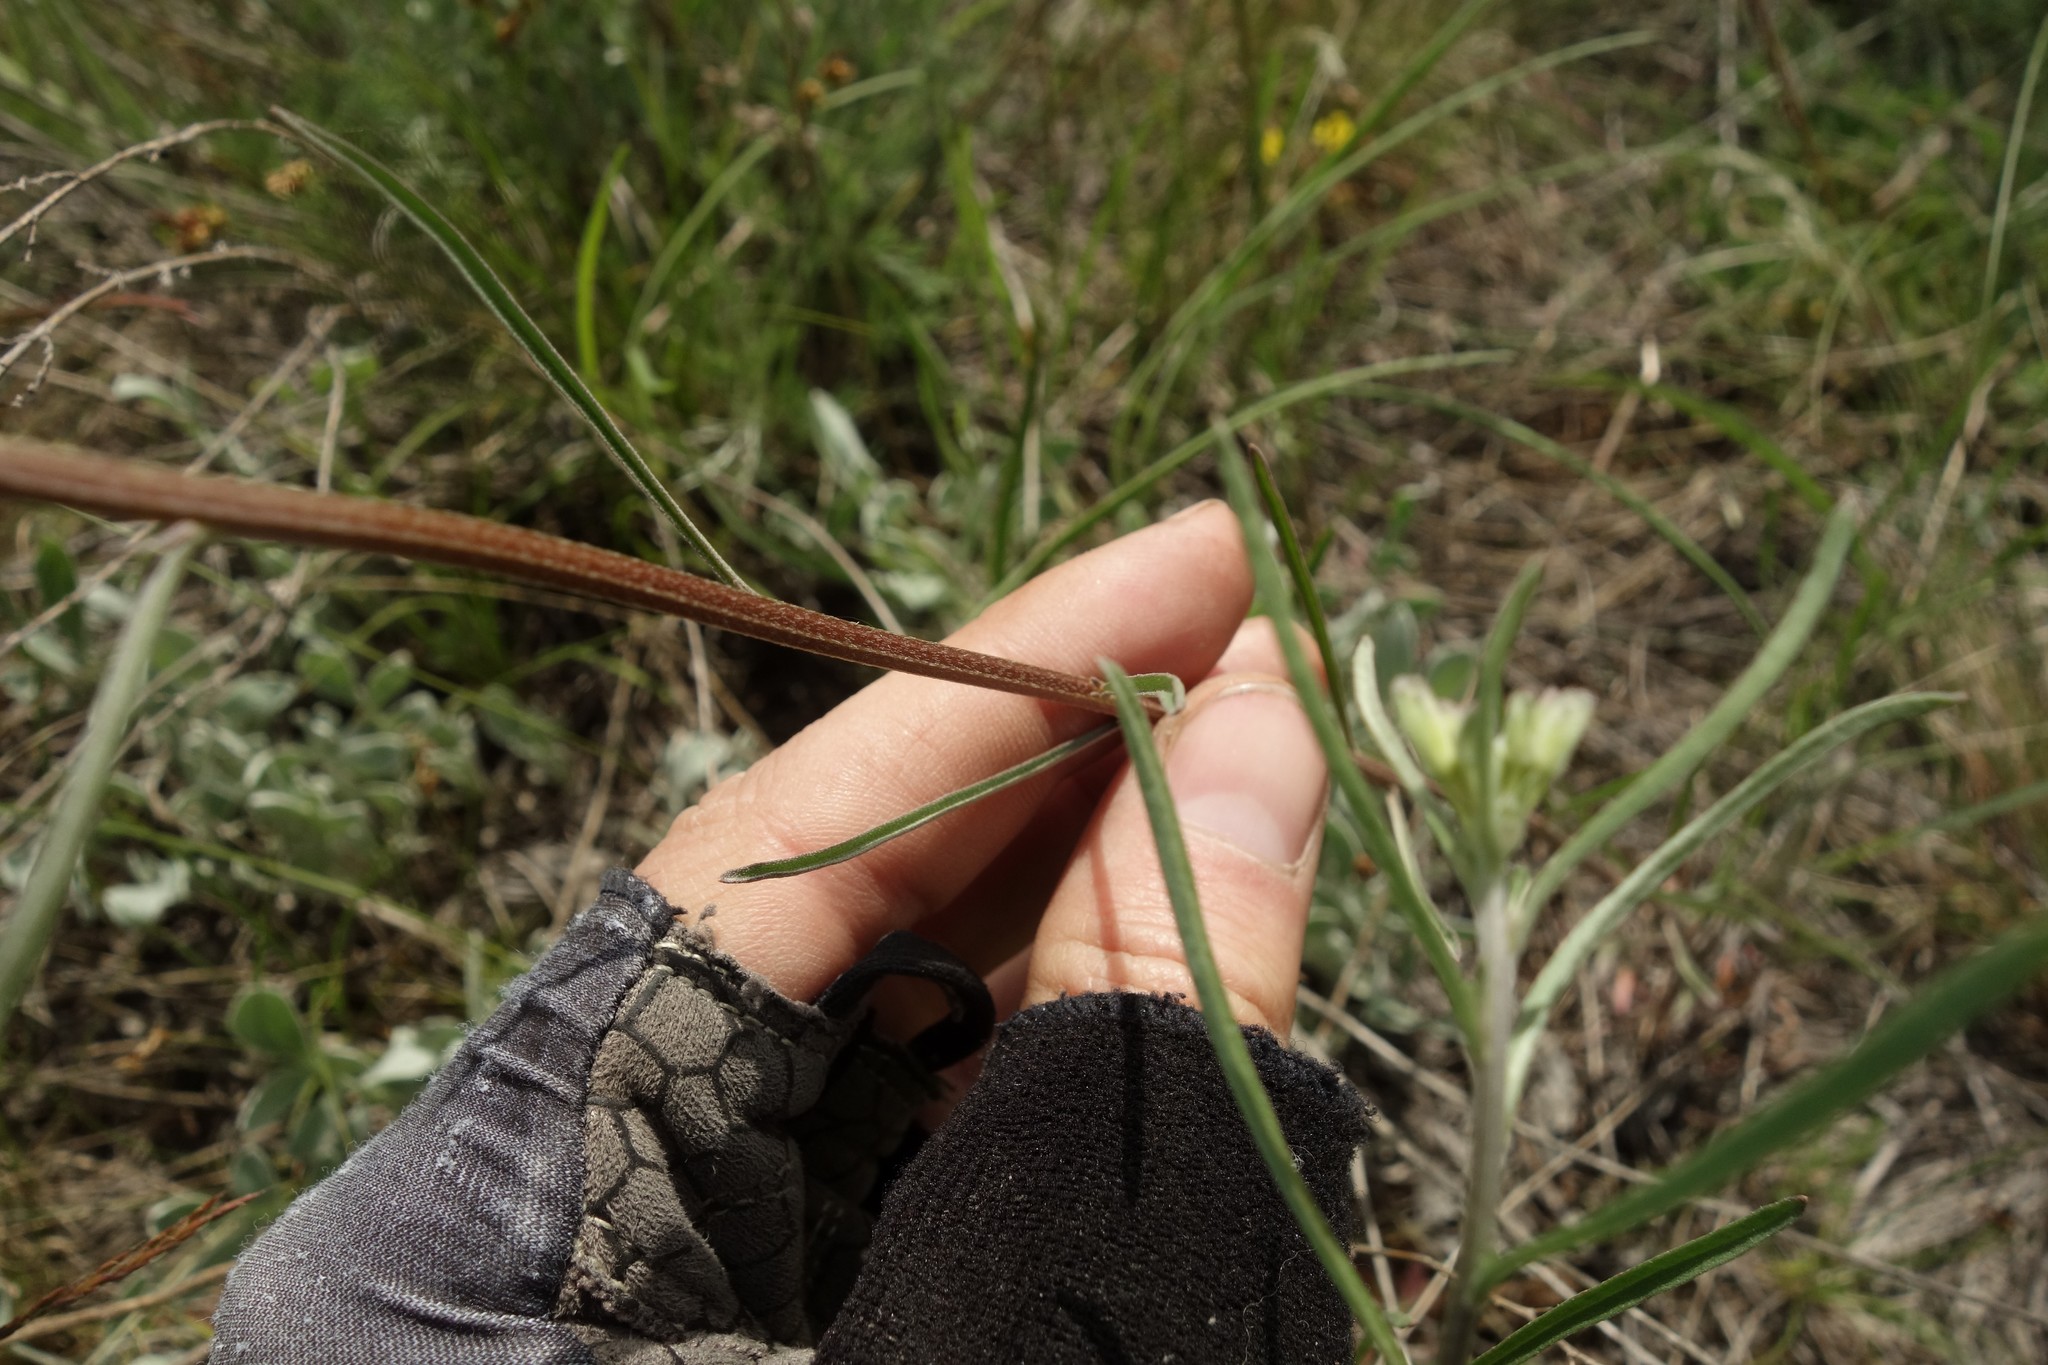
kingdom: Plantae
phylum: Tracheophyta
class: Magnoliopsida
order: Brassicales
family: Brassicaceae
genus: Erysimum
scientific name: Erysimum diffusum
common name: Diffuse wallflower
